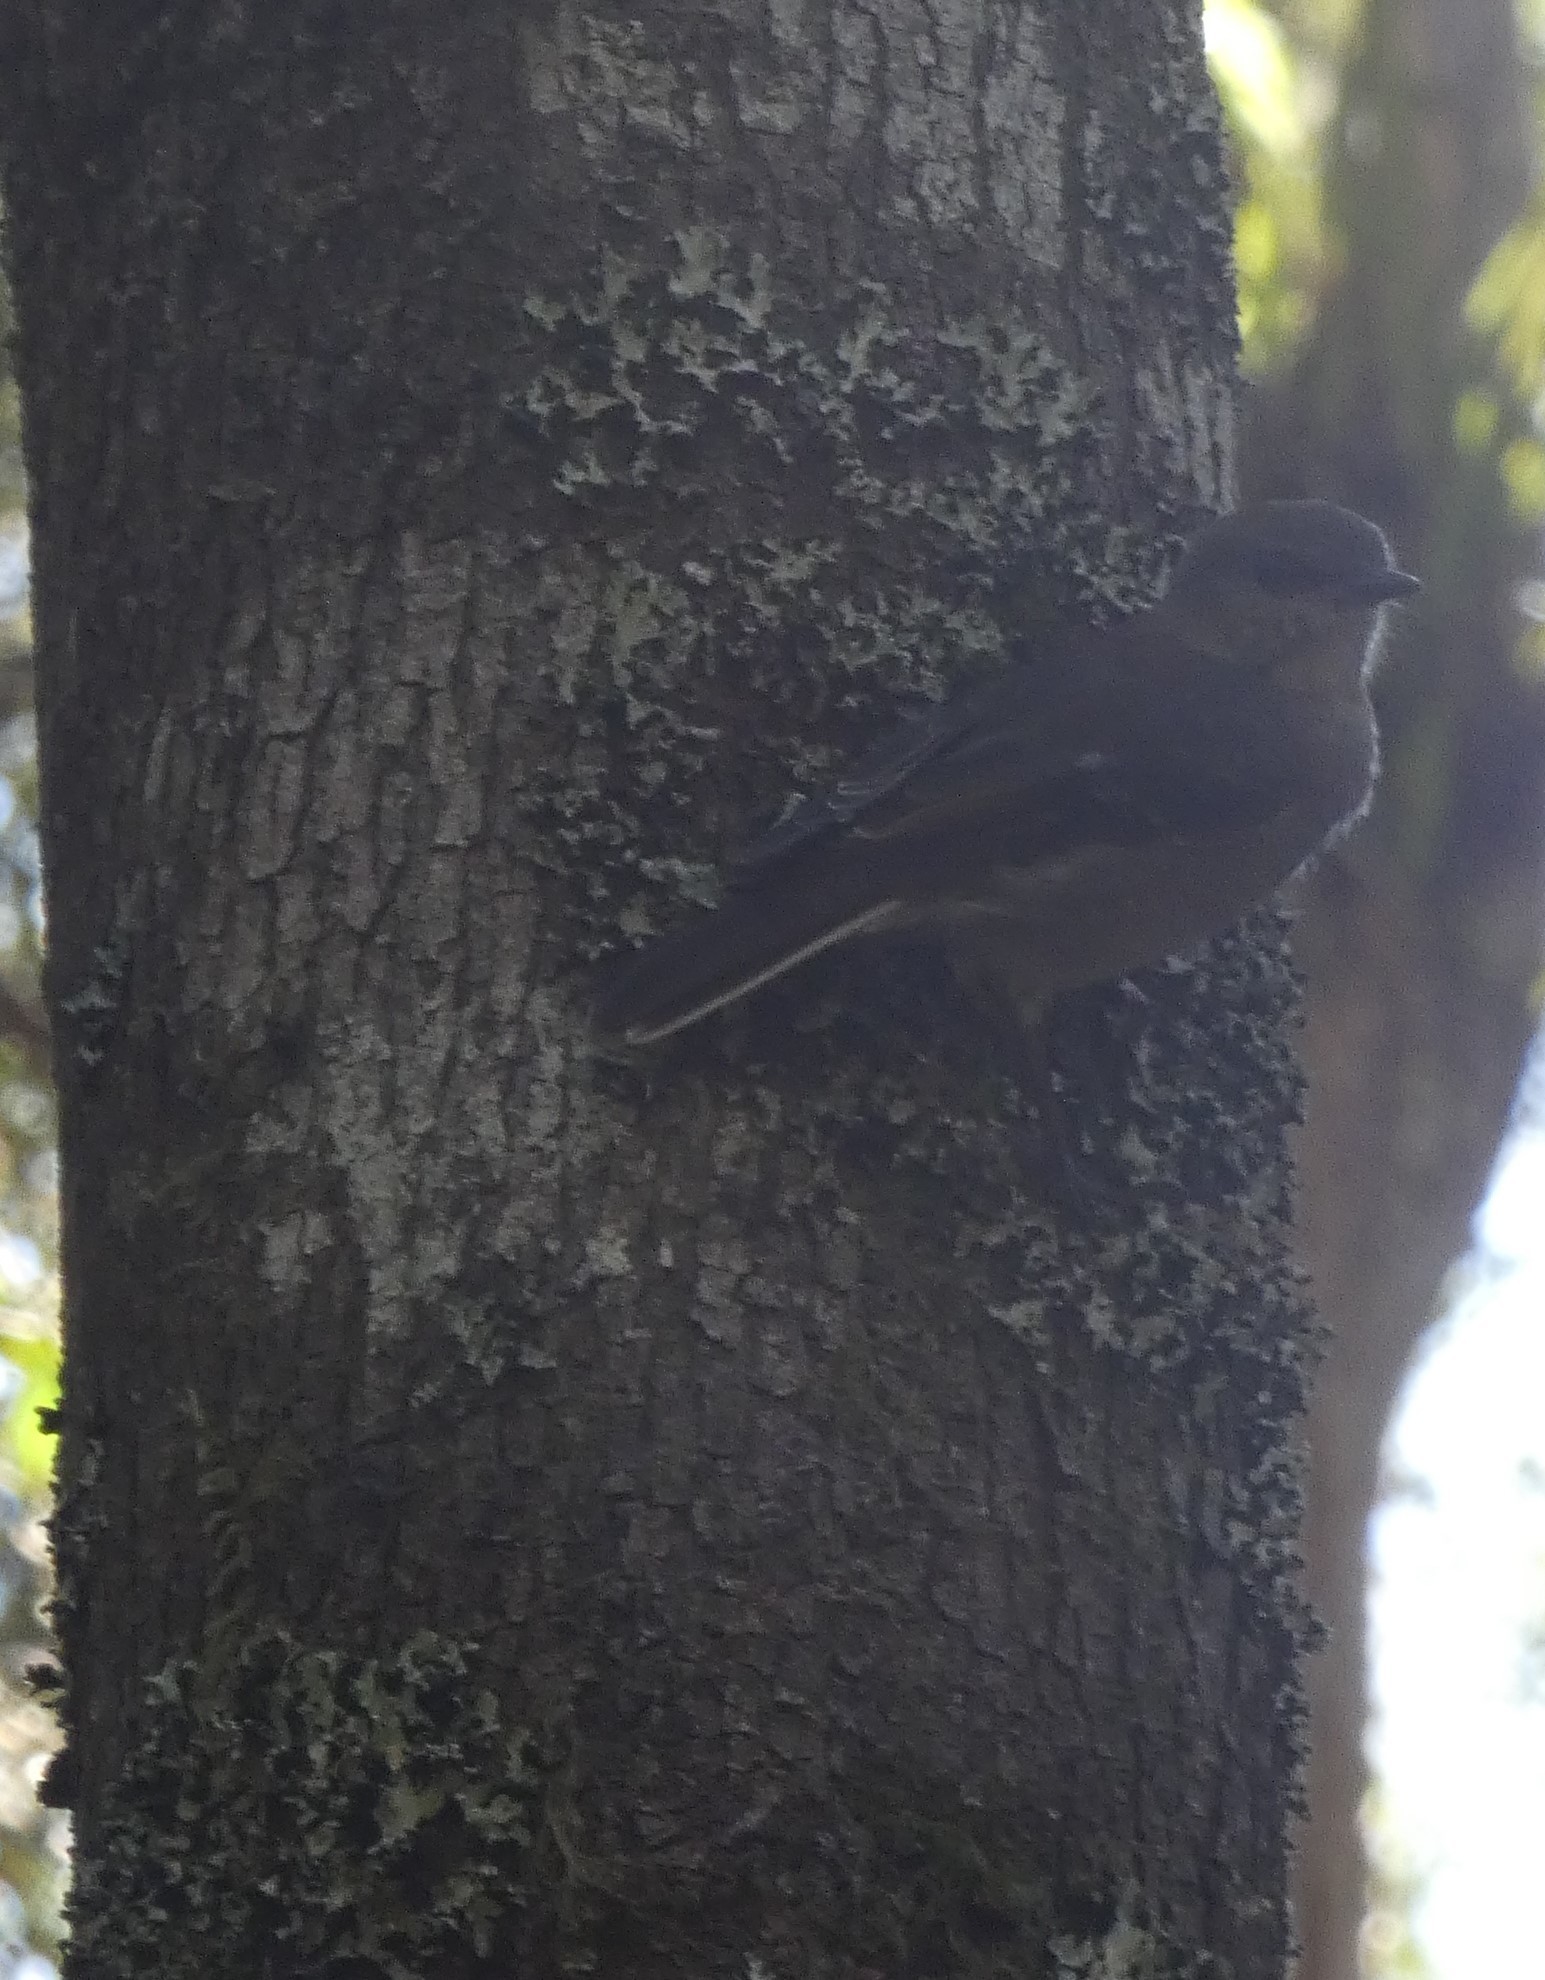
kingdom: Animalia
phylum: Chordata
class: Aves
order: Passeriformes
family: Petroicidae
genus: Melanodryas
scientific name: Melanodryas vittata
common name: Dusky robin
